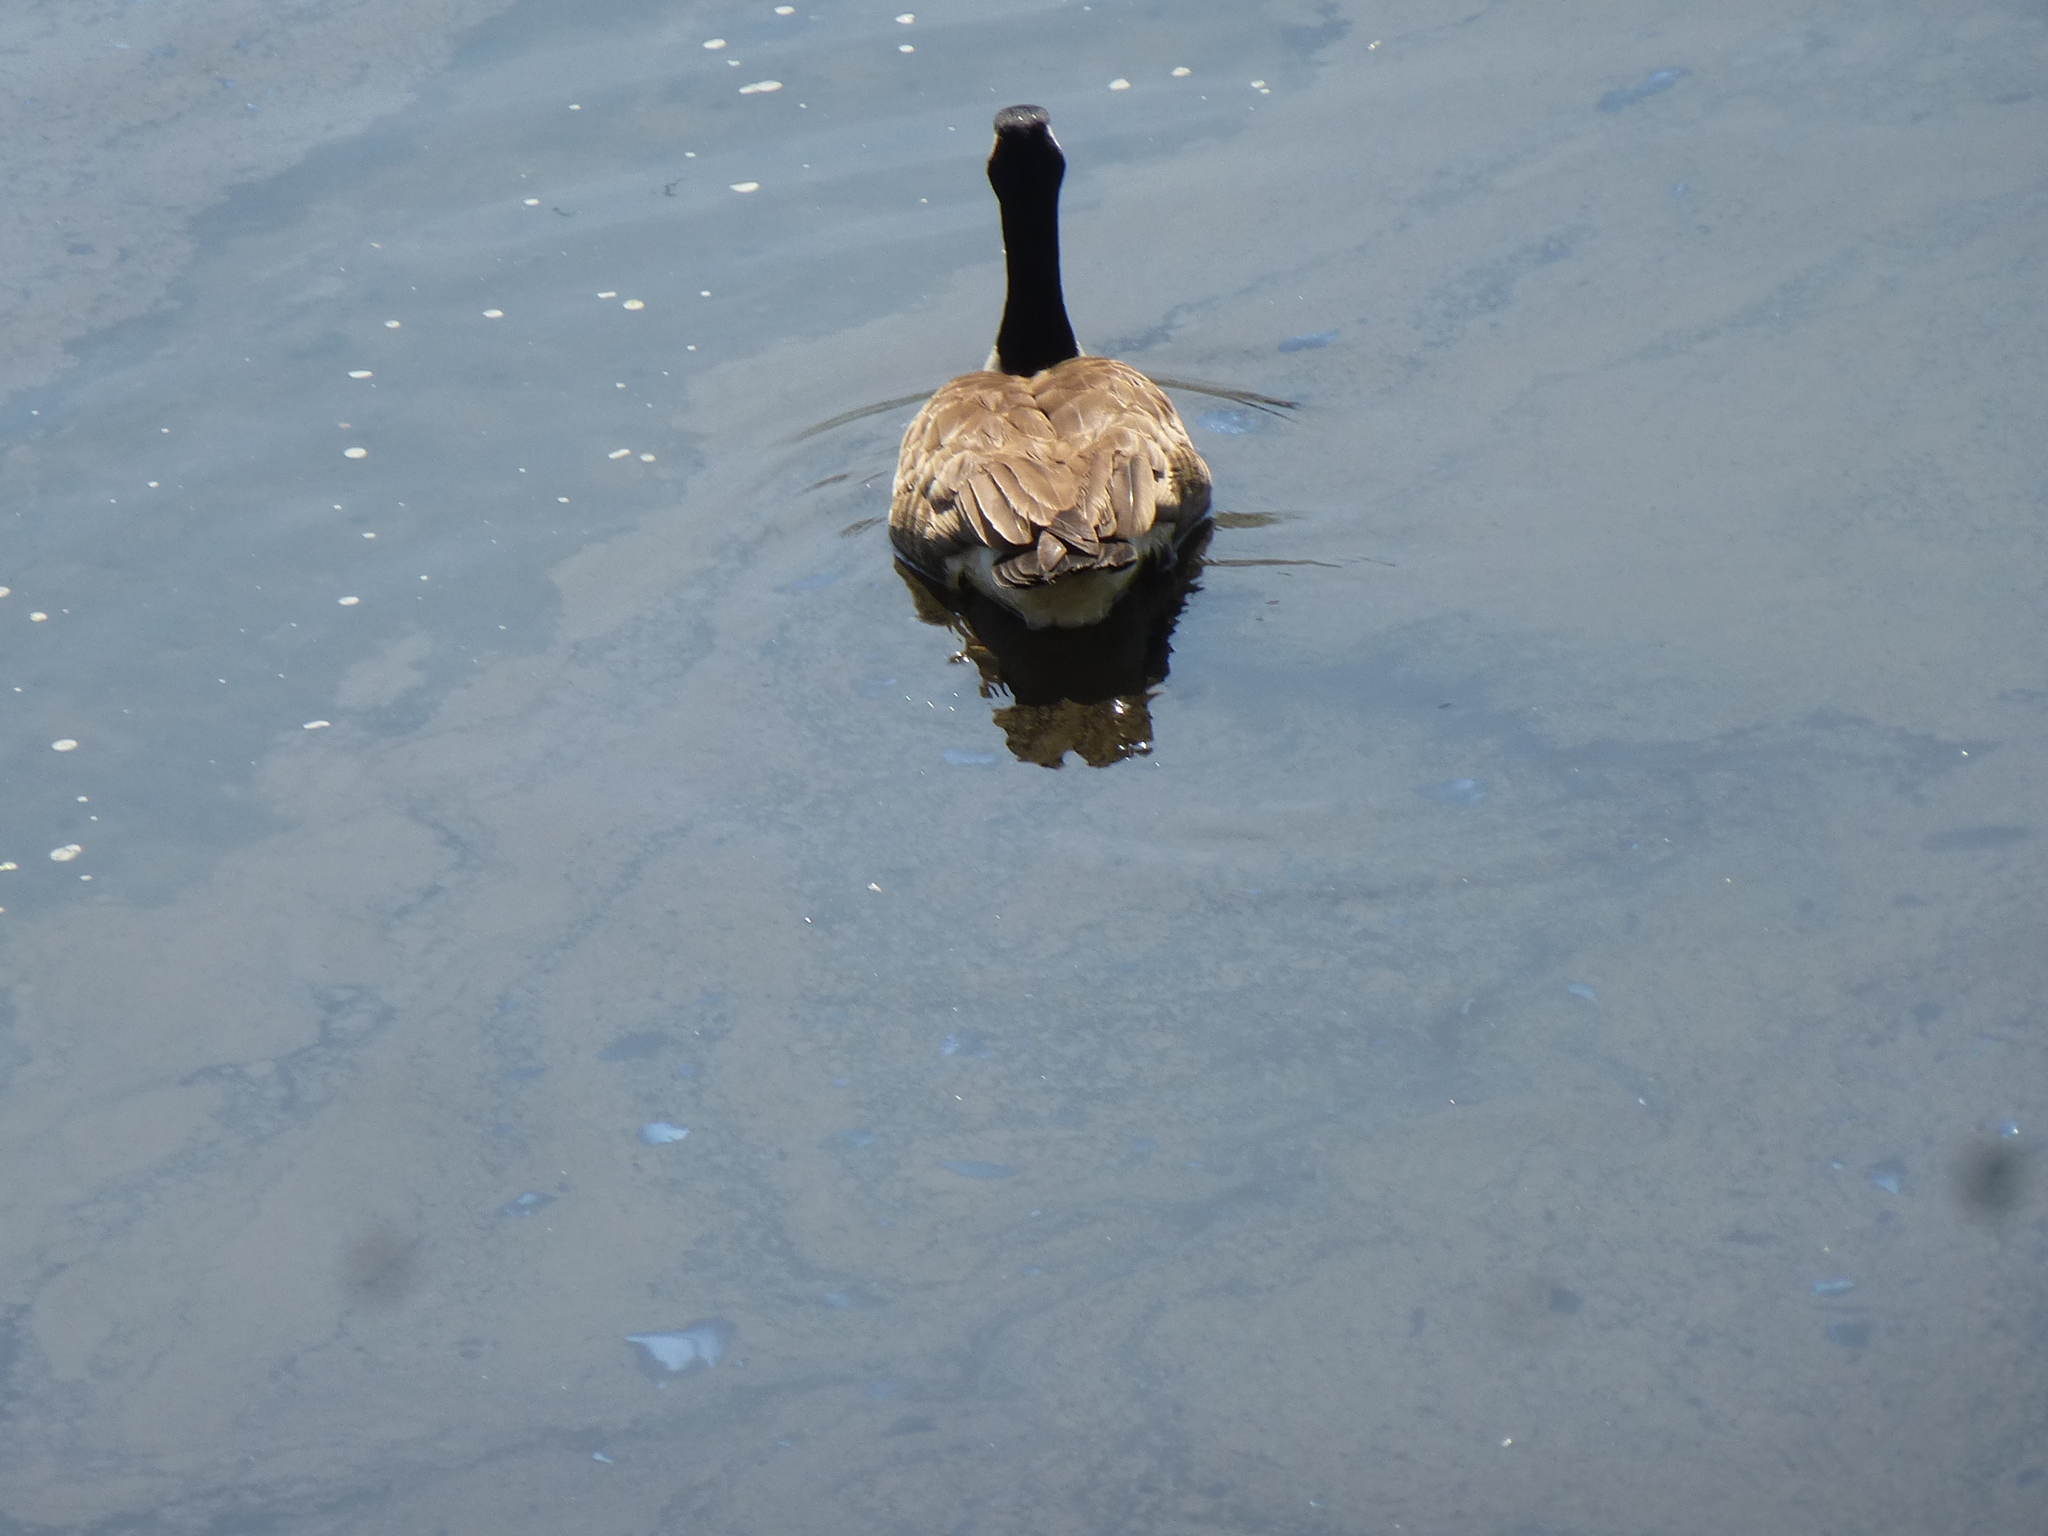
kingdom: Animalia
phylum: Chordata
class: Aves
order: Anseriformes
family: Anatidae
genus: Branta
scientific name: Branta canadensis
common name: Canada goose
